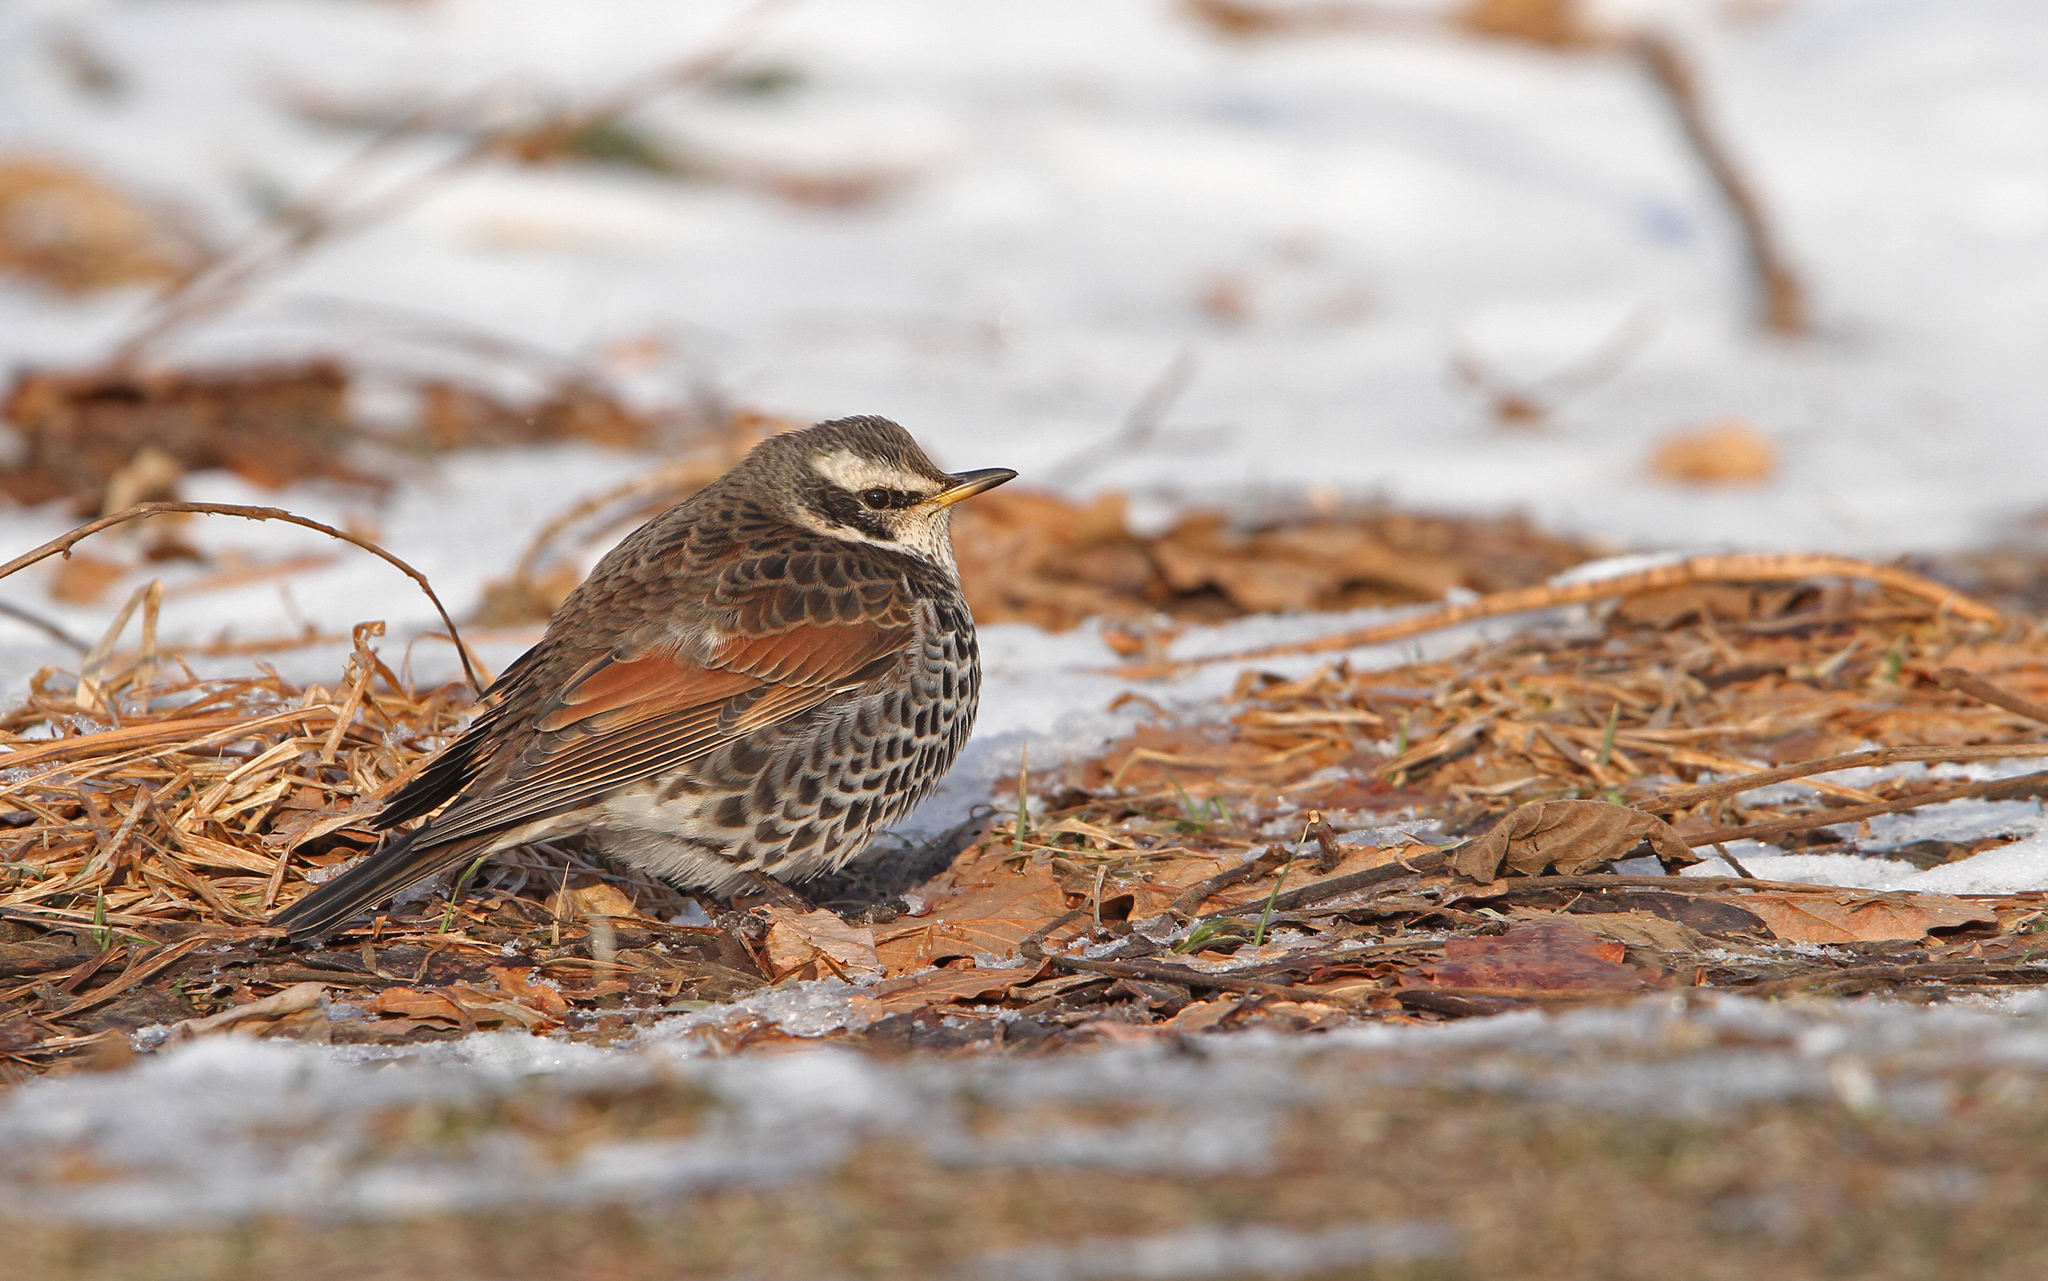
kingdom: Animalia
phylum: Chordata
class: Aves
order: Passeriformes
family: Turdidae
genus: Turdus
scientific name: Turdus eunomus
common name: Dusky thrush
